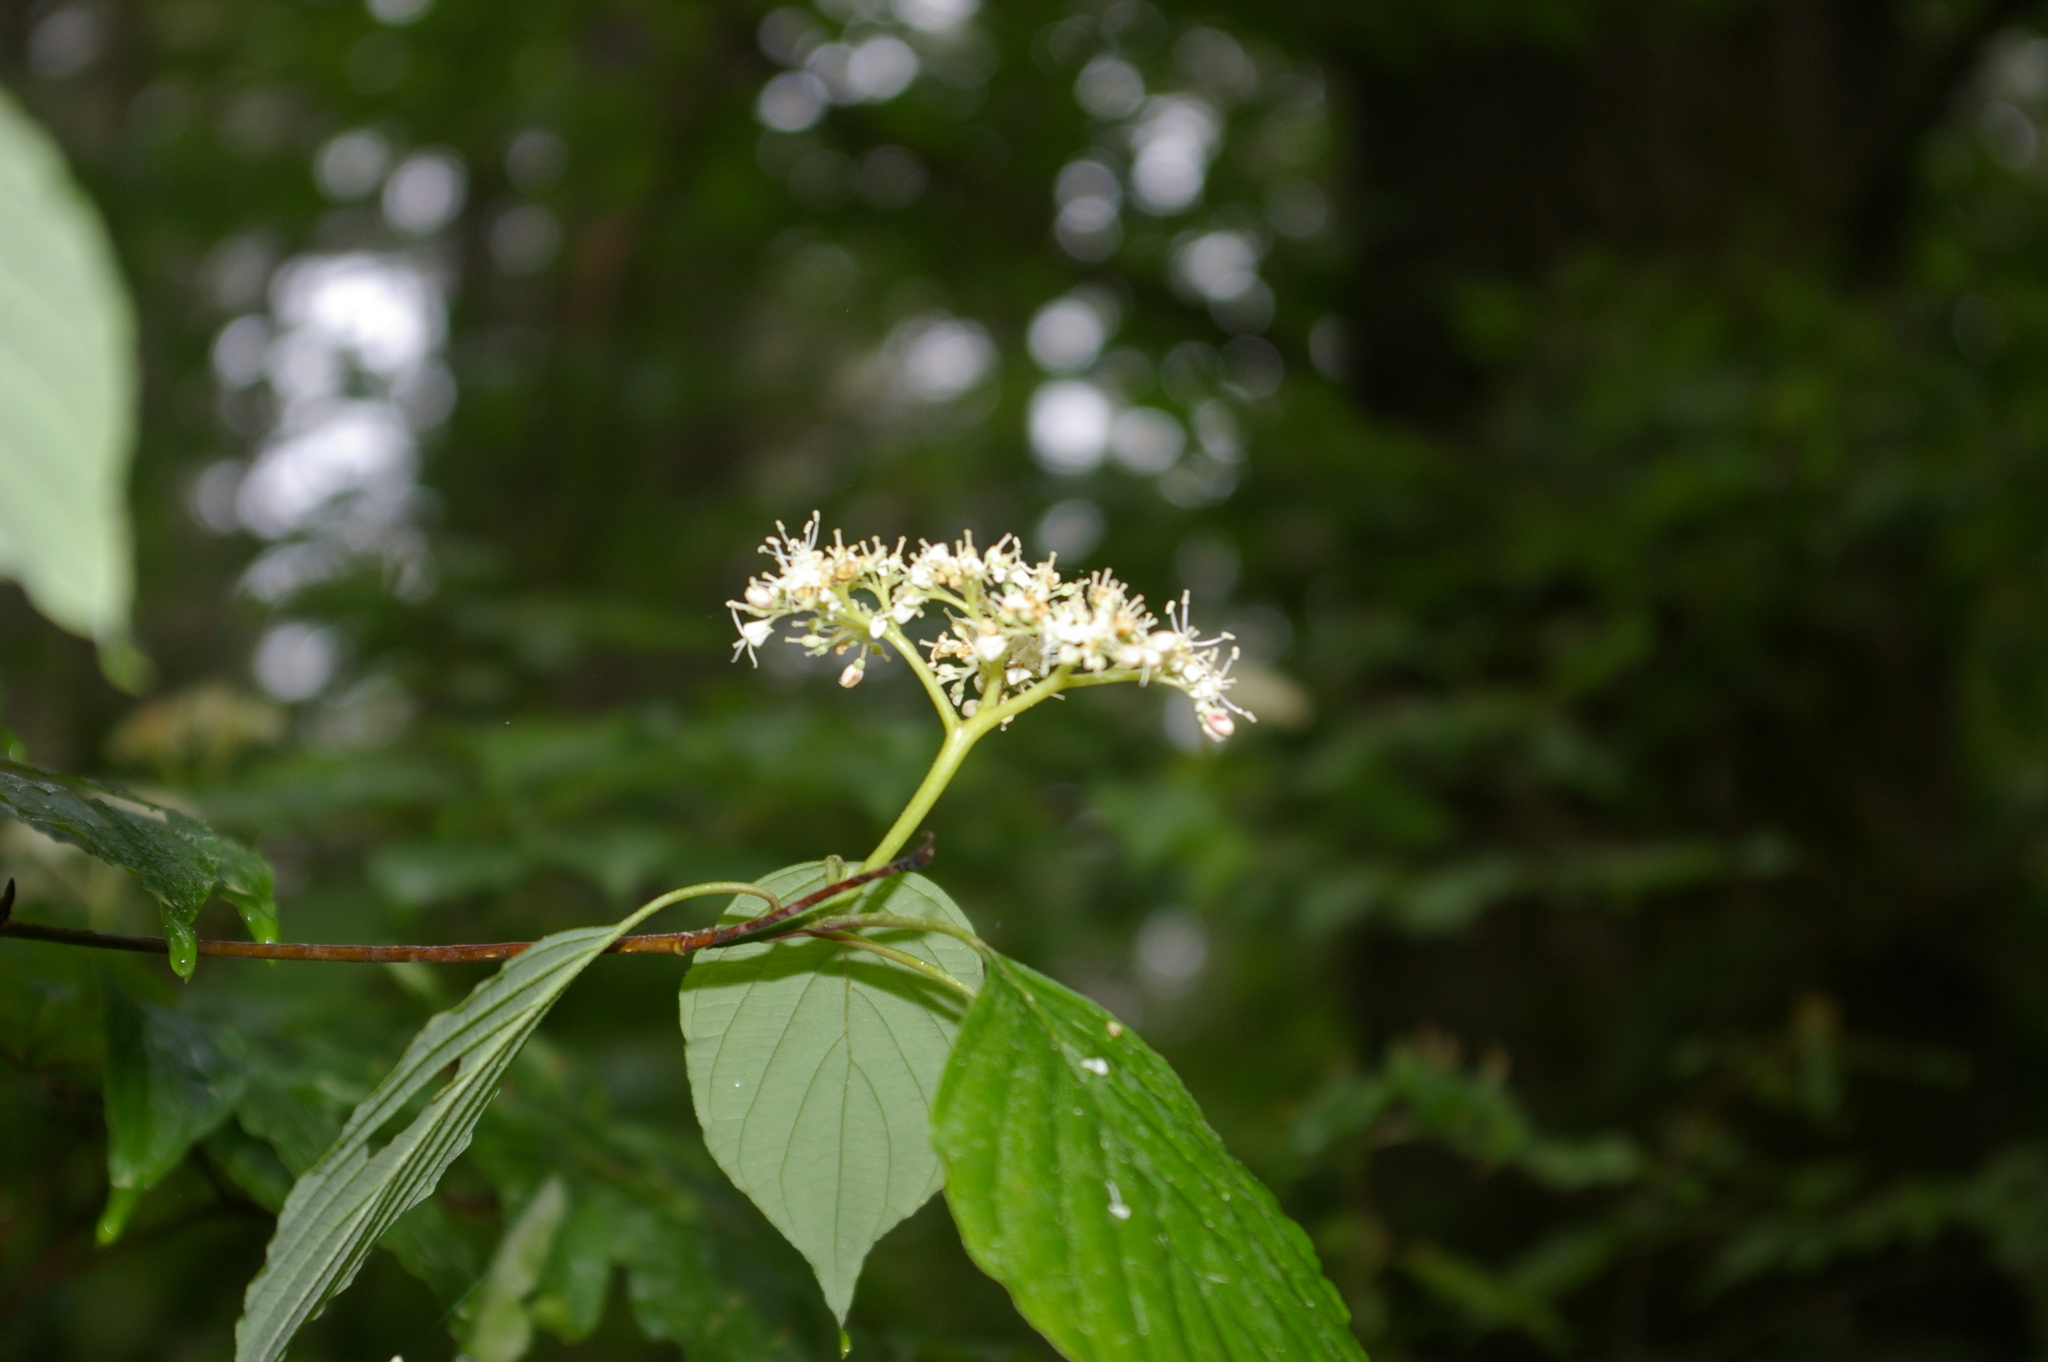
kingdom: Plantae
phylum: Tracheophyta
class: Magnoliopsida
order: Cornales
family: Cornaceae
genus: Cornus
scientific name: Cornus alternifolia
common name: Pagoda dogwood
